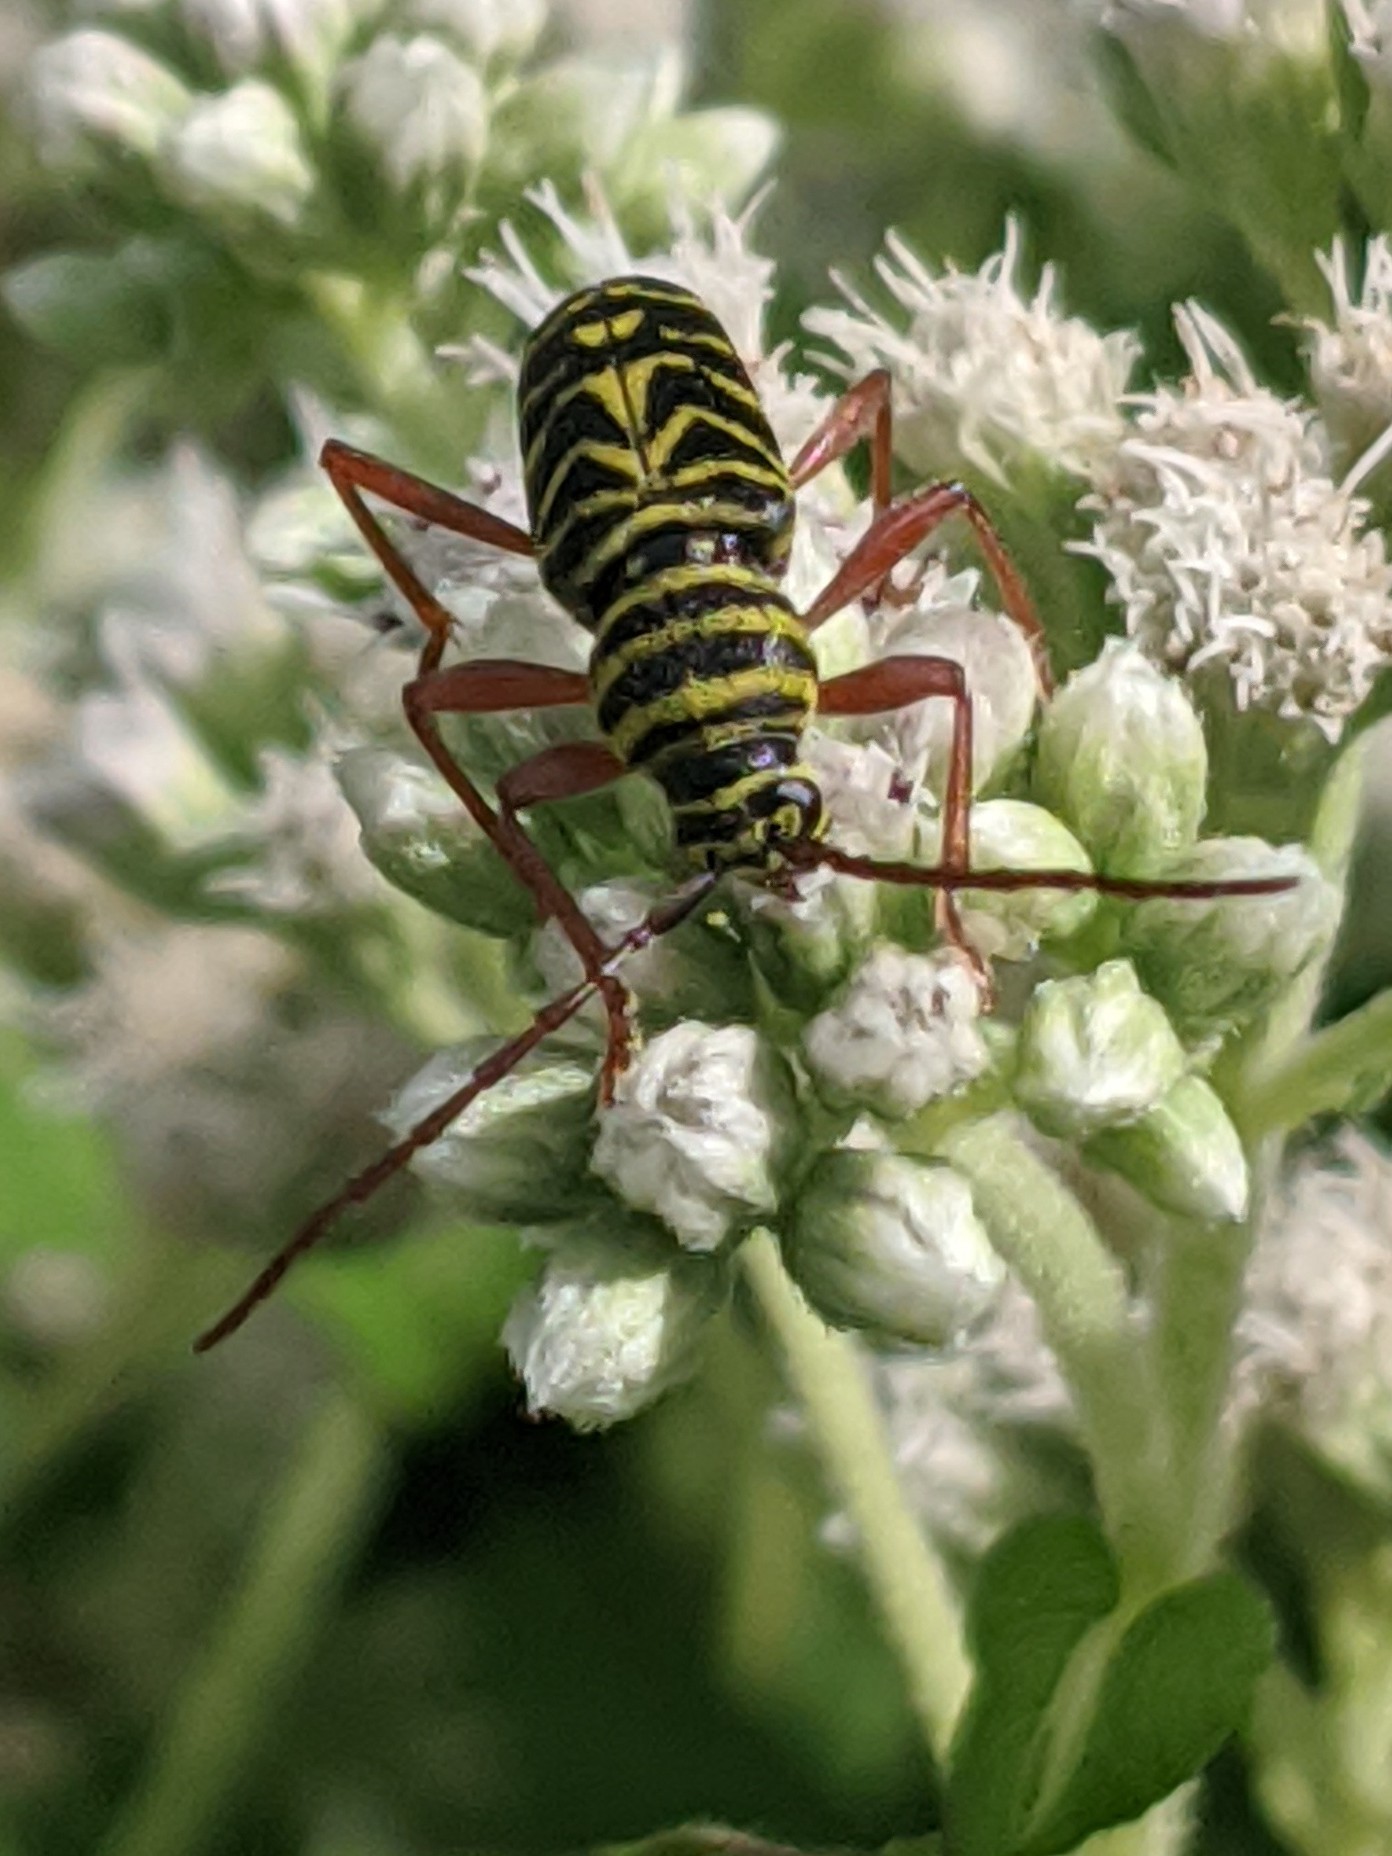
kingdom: Animalia
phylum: Arthropoda
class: Insecta
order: Coleoptera
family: Cerambycidae
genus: Megacyllene
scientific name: Megacyllene robiniae
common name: Locust borer
